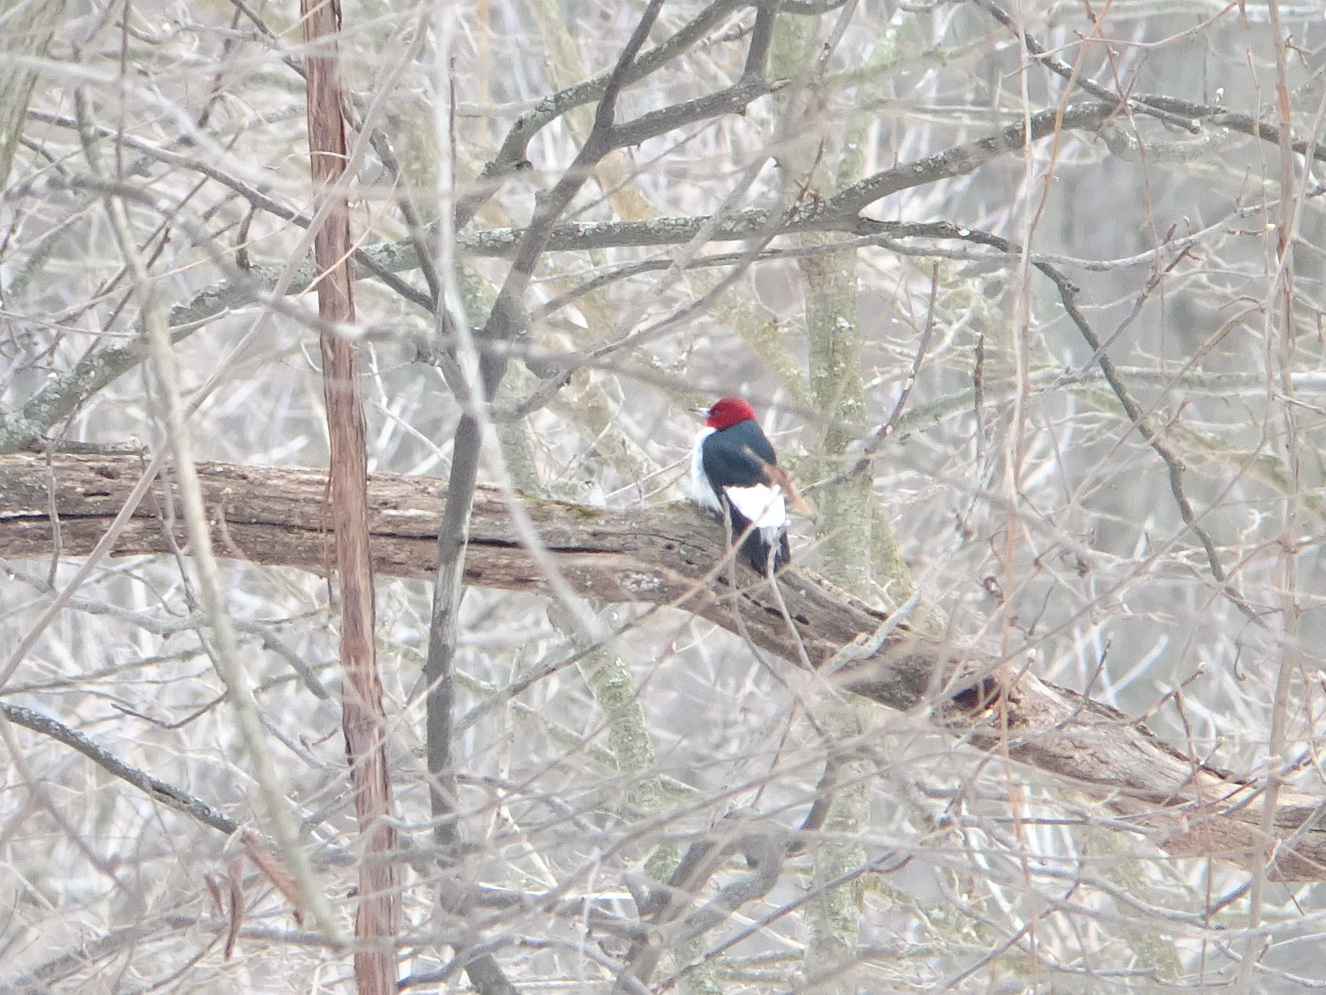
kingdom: Animalia
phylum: Chordata
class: Aves
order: Piciformes
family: Picidae
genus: Melanerpes
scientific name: Melanerpes erythrocephalus
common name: Red-headed woodpecker
